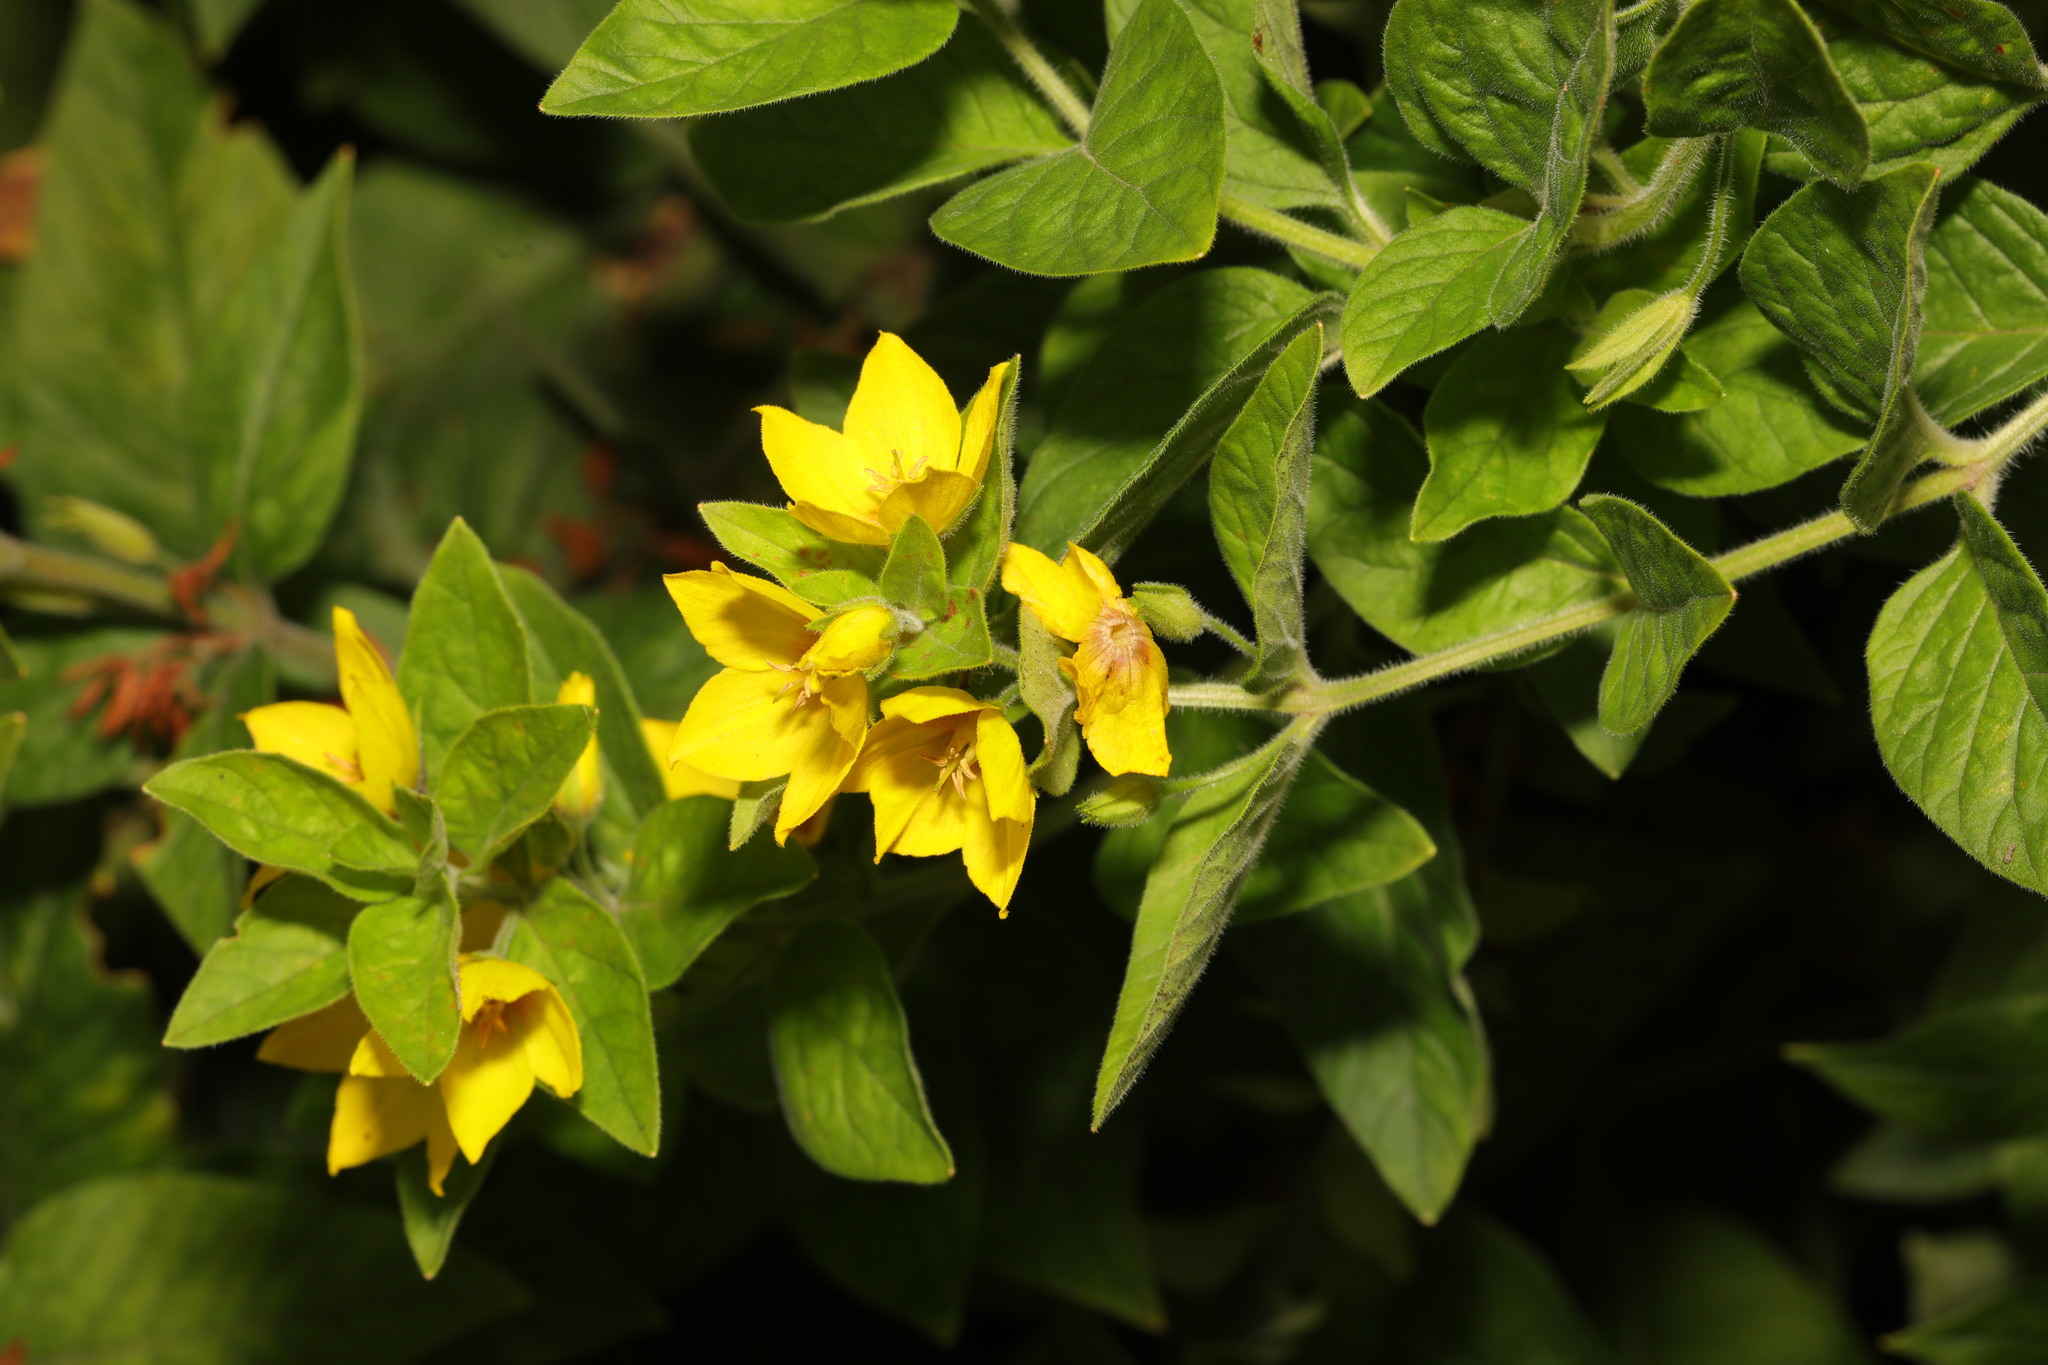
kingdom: Plantae
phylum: Tracheophyta
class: Magnoliopsida
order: Ericales
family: Primulaceae
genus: Lysimachia
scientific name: Lysimachia punctata
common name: Dotted loosestrife
